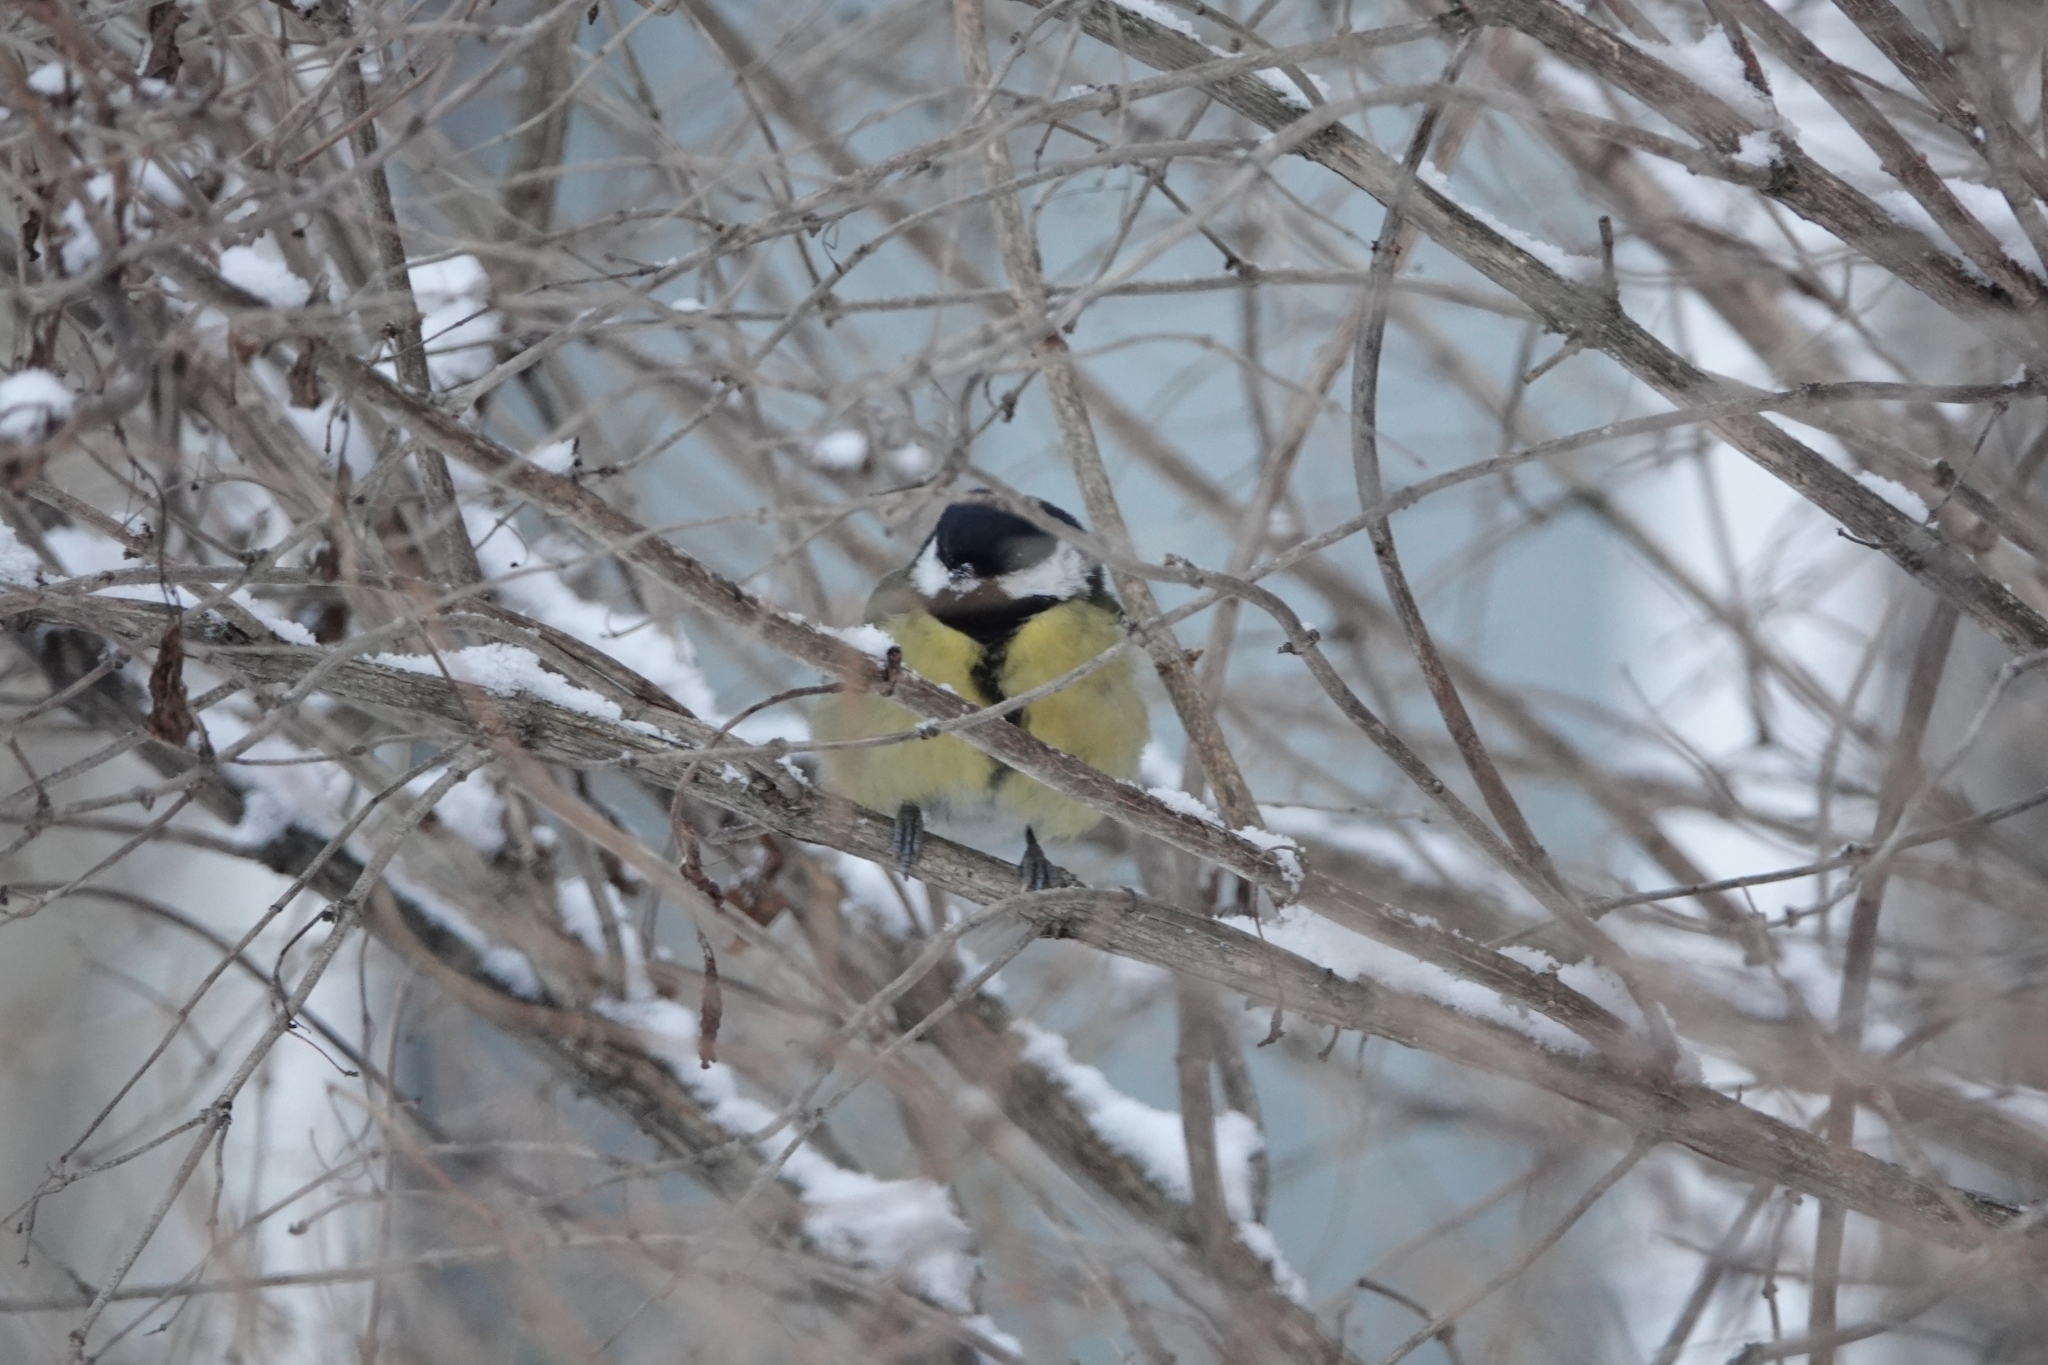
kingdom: Animalia
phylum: Chordata
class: Aves
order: Passeriformes
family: Paridae
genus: Parus
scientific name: Parus major
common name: Great tit
